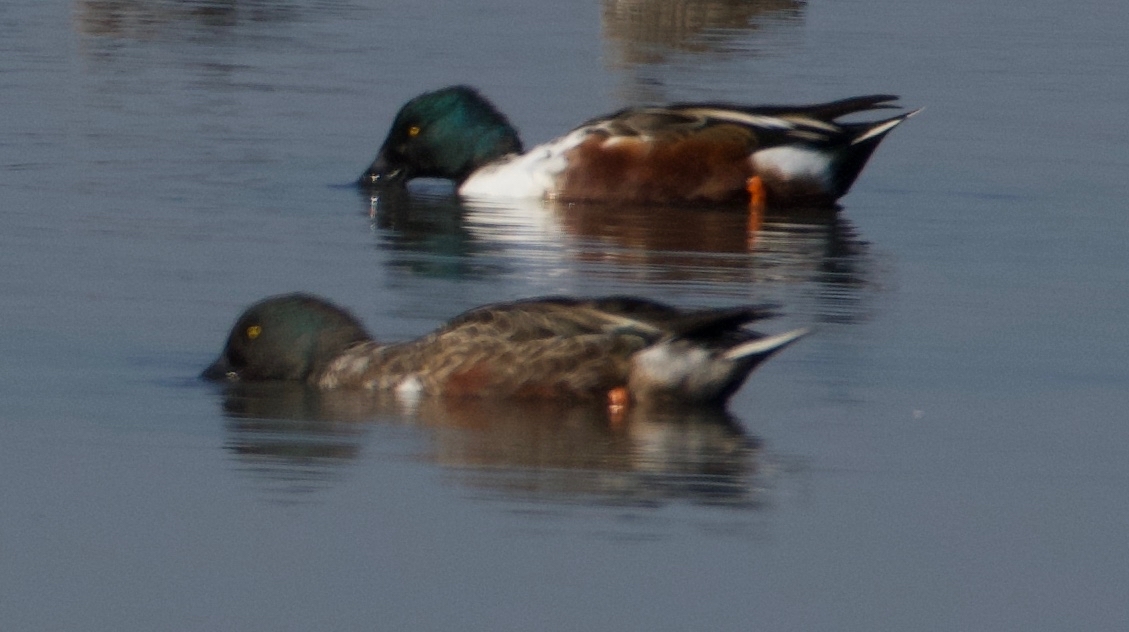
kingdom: Animalia
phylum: Chordata
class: Aves
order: Anseriformes
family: Anatidae
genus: Spatula
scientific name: Spatula clypeata
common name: Northern shoveler
